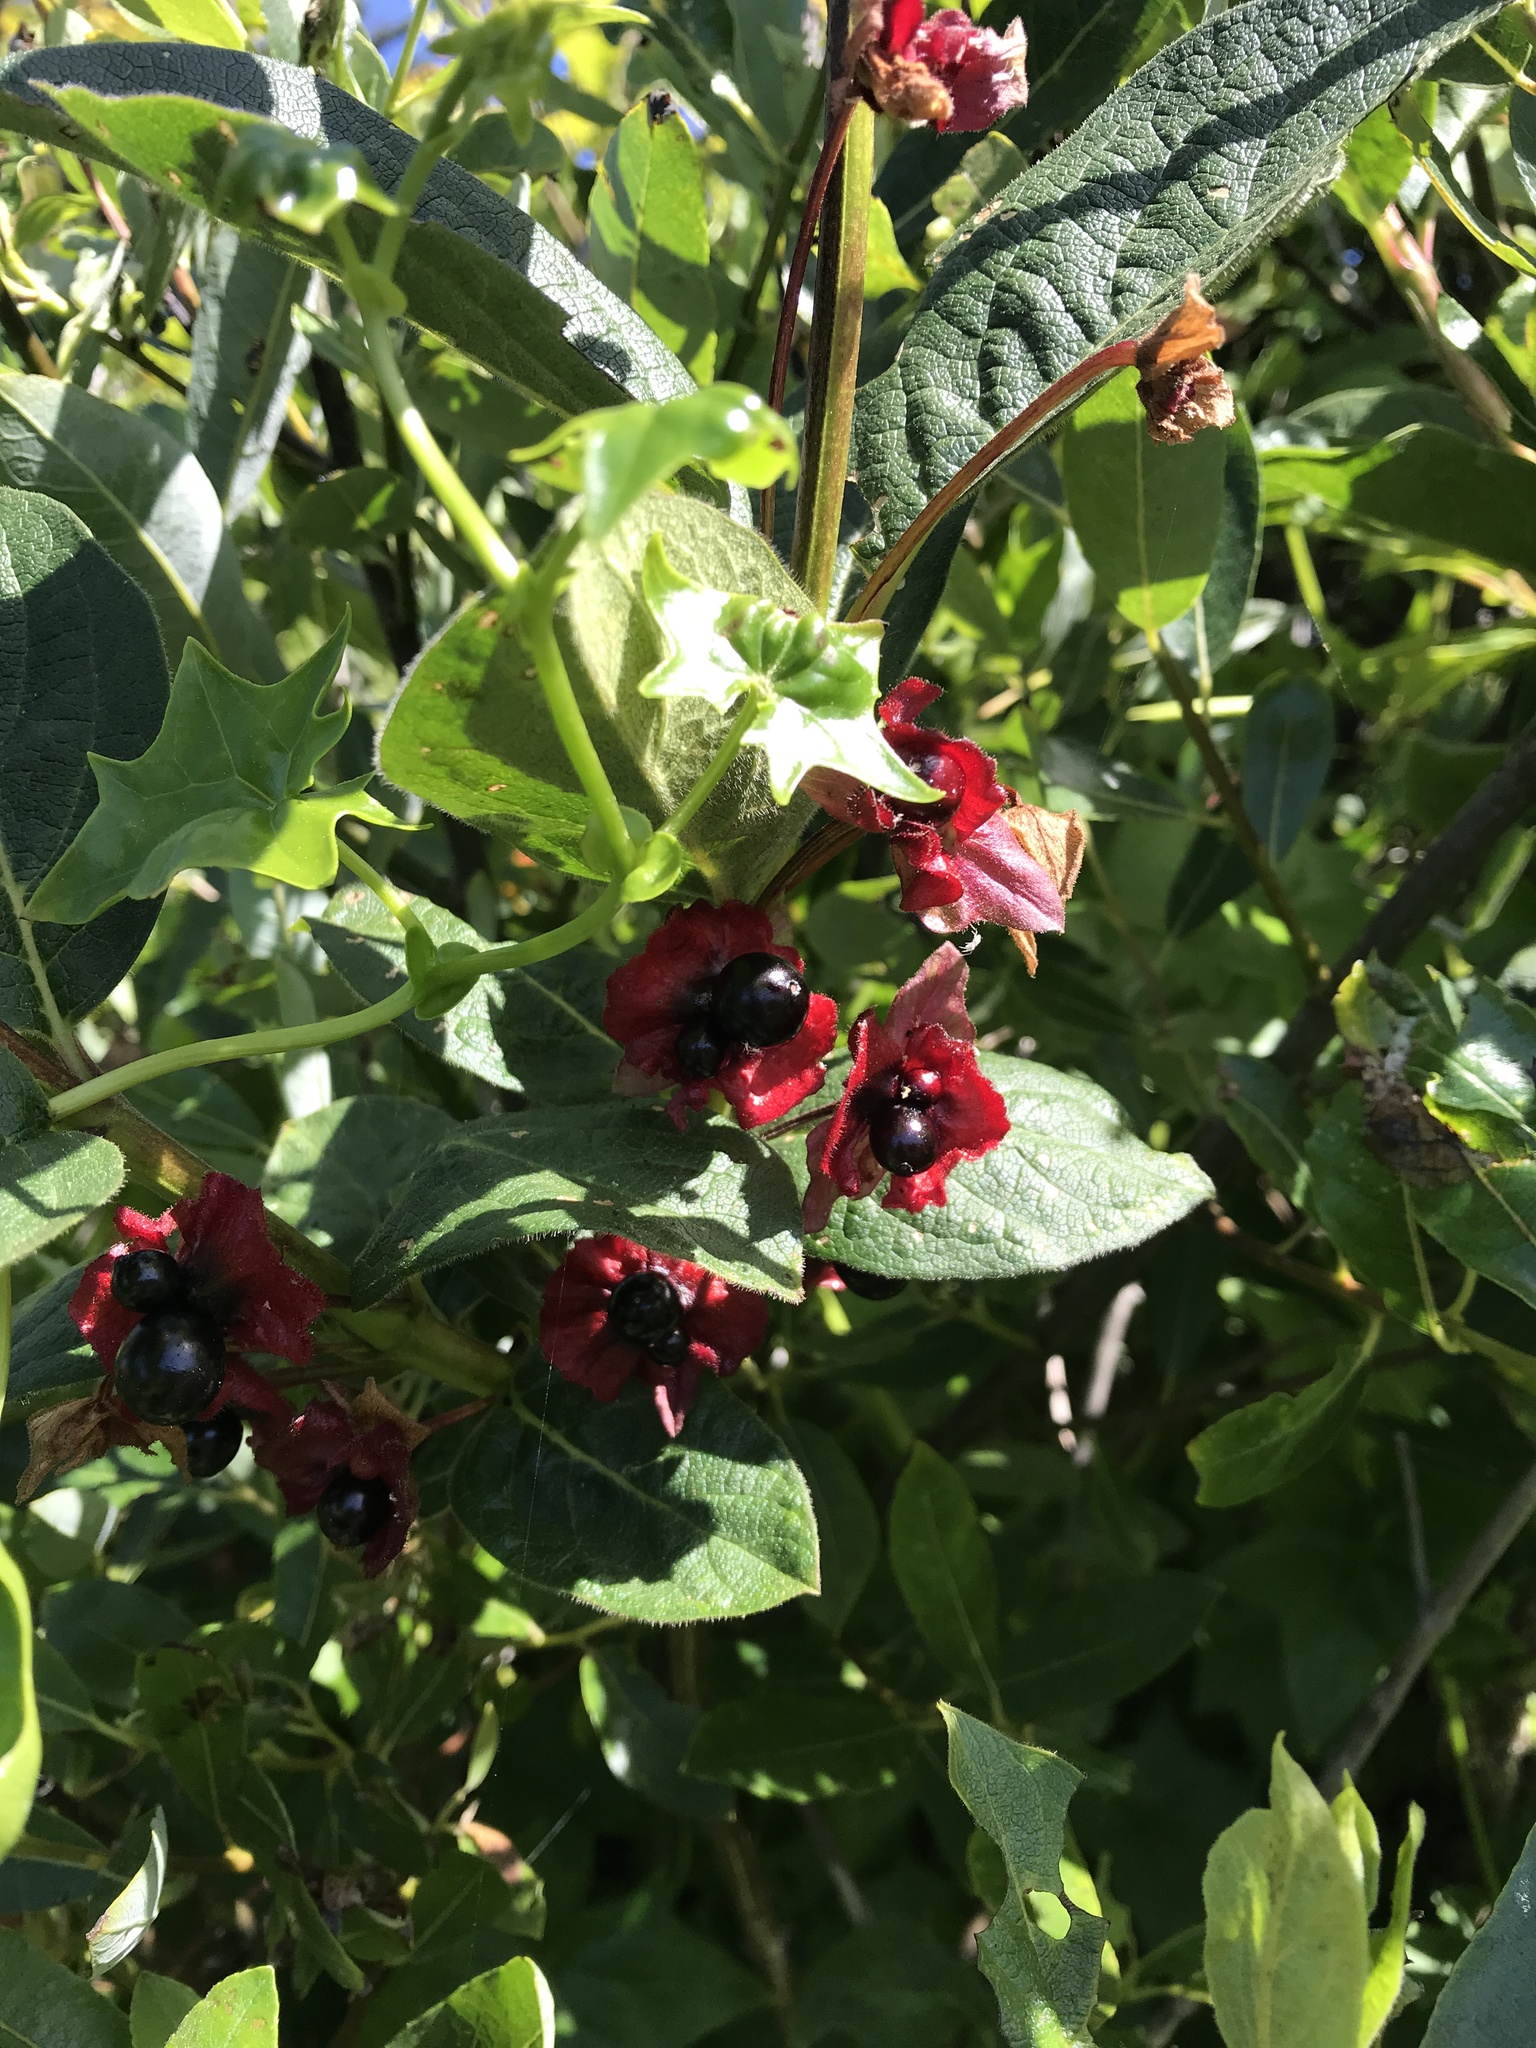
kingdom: Plantae
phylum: Tracheophyta
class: Magnoliopsida
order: Dipsacales
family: Caprifoliaceae
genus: Lonicera
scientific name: Lonicera involucrata
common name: Californian honeysuckle
